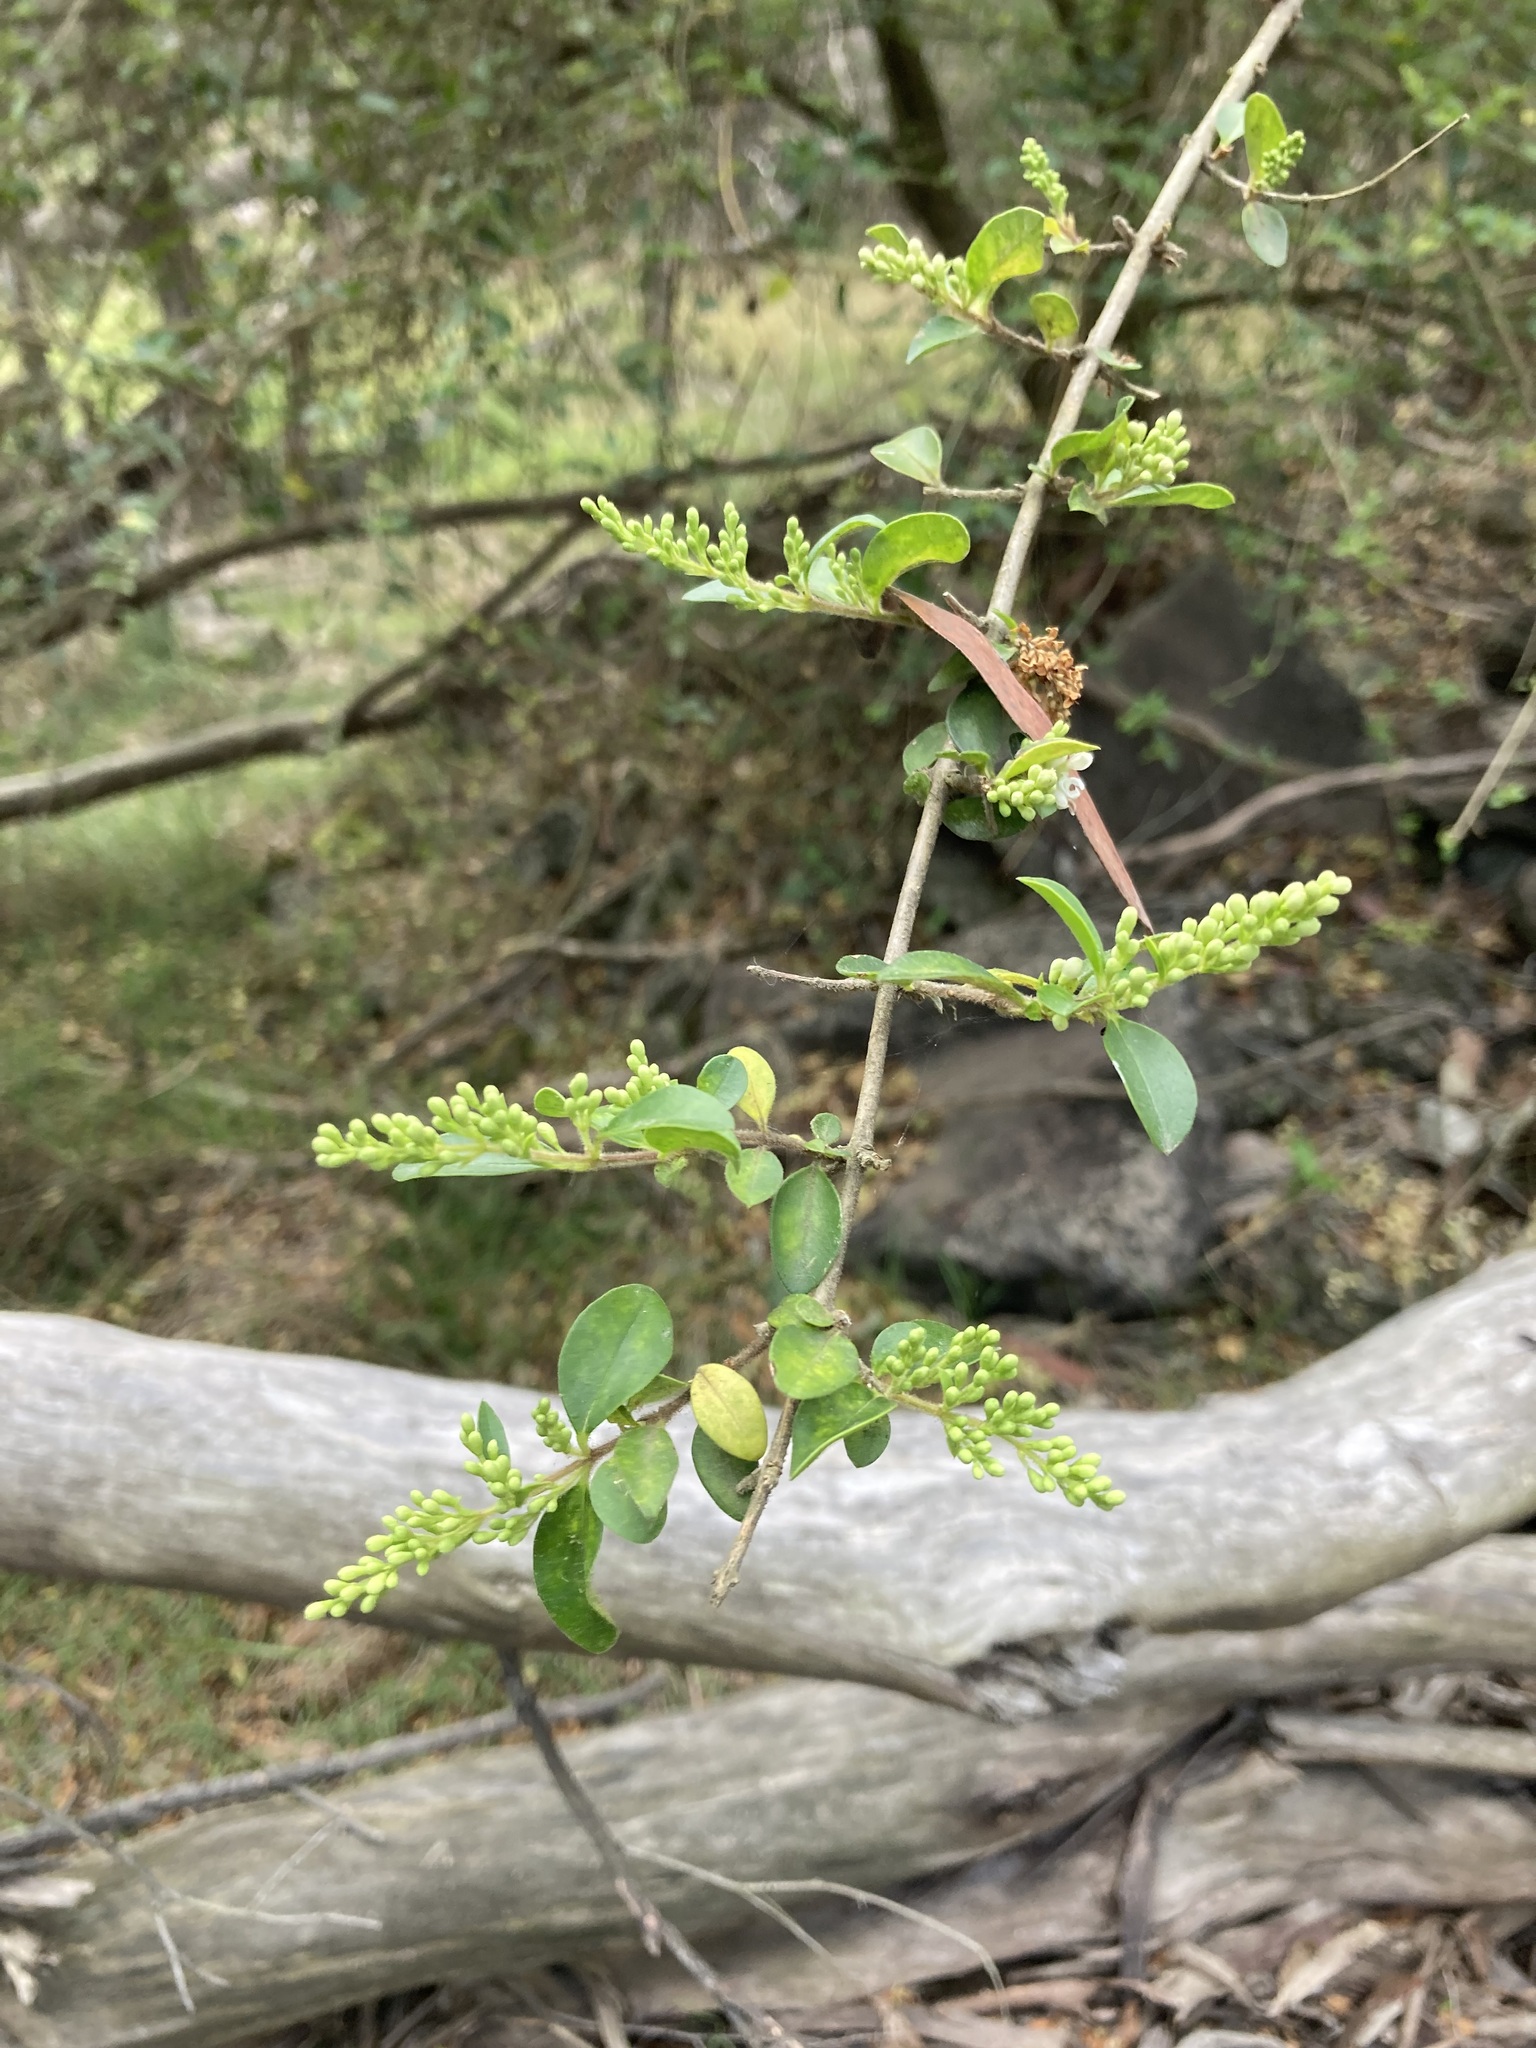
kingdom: Plantae
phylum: Tracheophyta
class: Magnoliopsida
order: Lamiales
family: Oleaceae
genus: Ligustrum
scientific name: Ligustrum sinense
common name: Chinese privet
